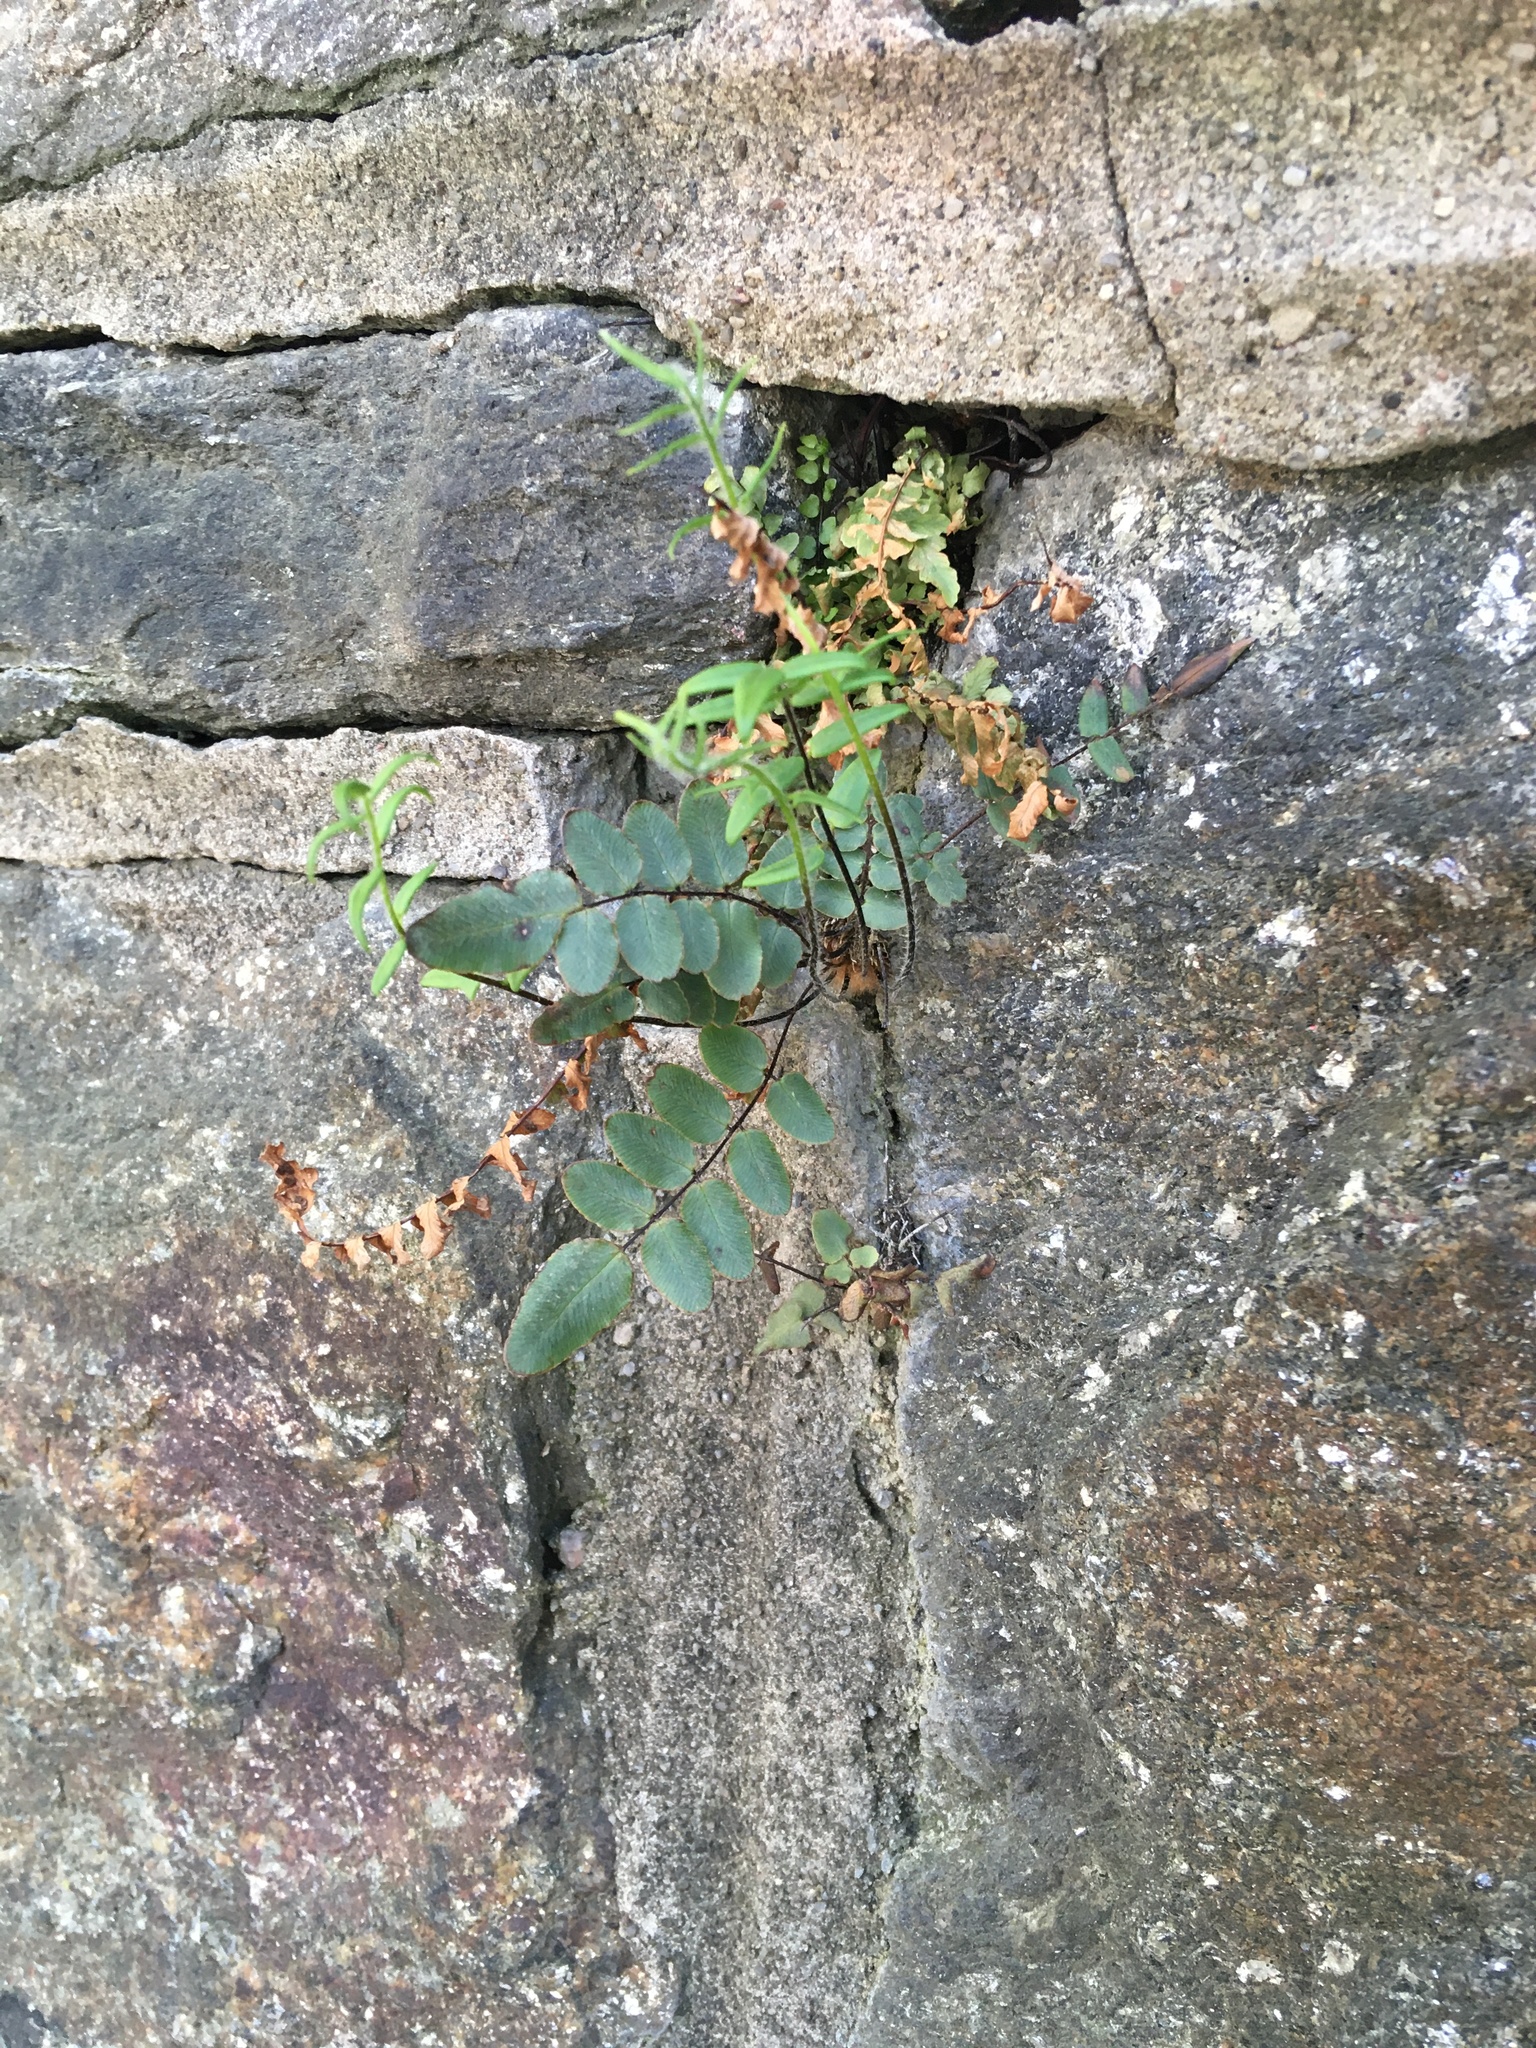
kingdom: Plantae
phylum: Tracheophyta
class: Polypodiopsida
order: Polypodiales
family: Pteridaceae
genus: Pellaea
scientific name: Pellaea atropurpurea
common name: Hairy cliffbrake
